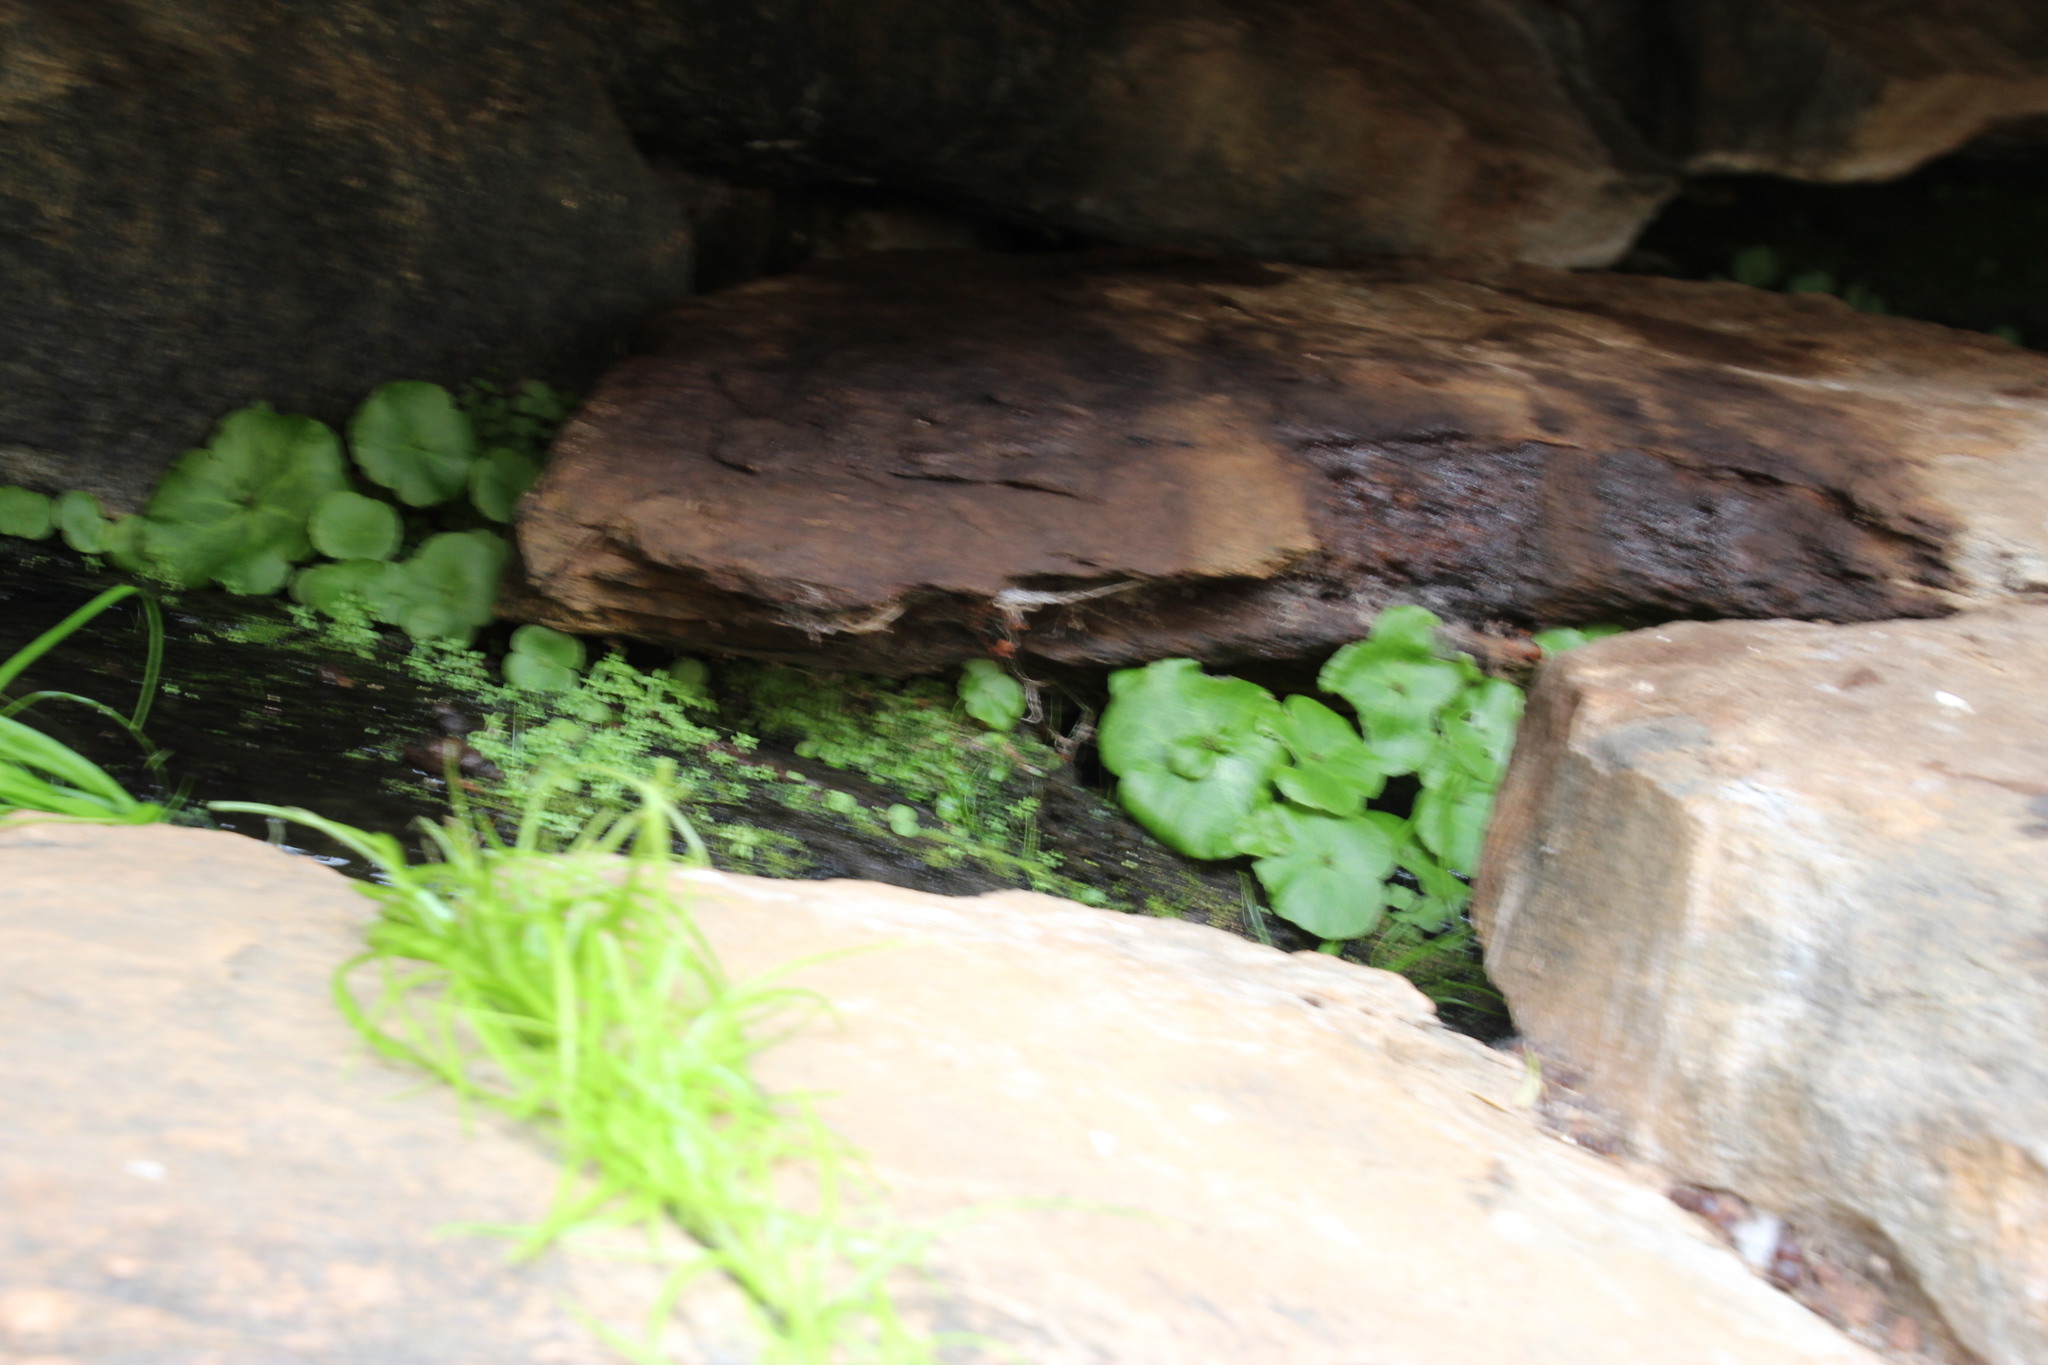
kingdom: Plantae
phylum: Tracheophyta
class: Magnoliopsida
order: Saxifragales
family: Crassulaceae
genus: Crassula
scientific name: Crassula umbella
